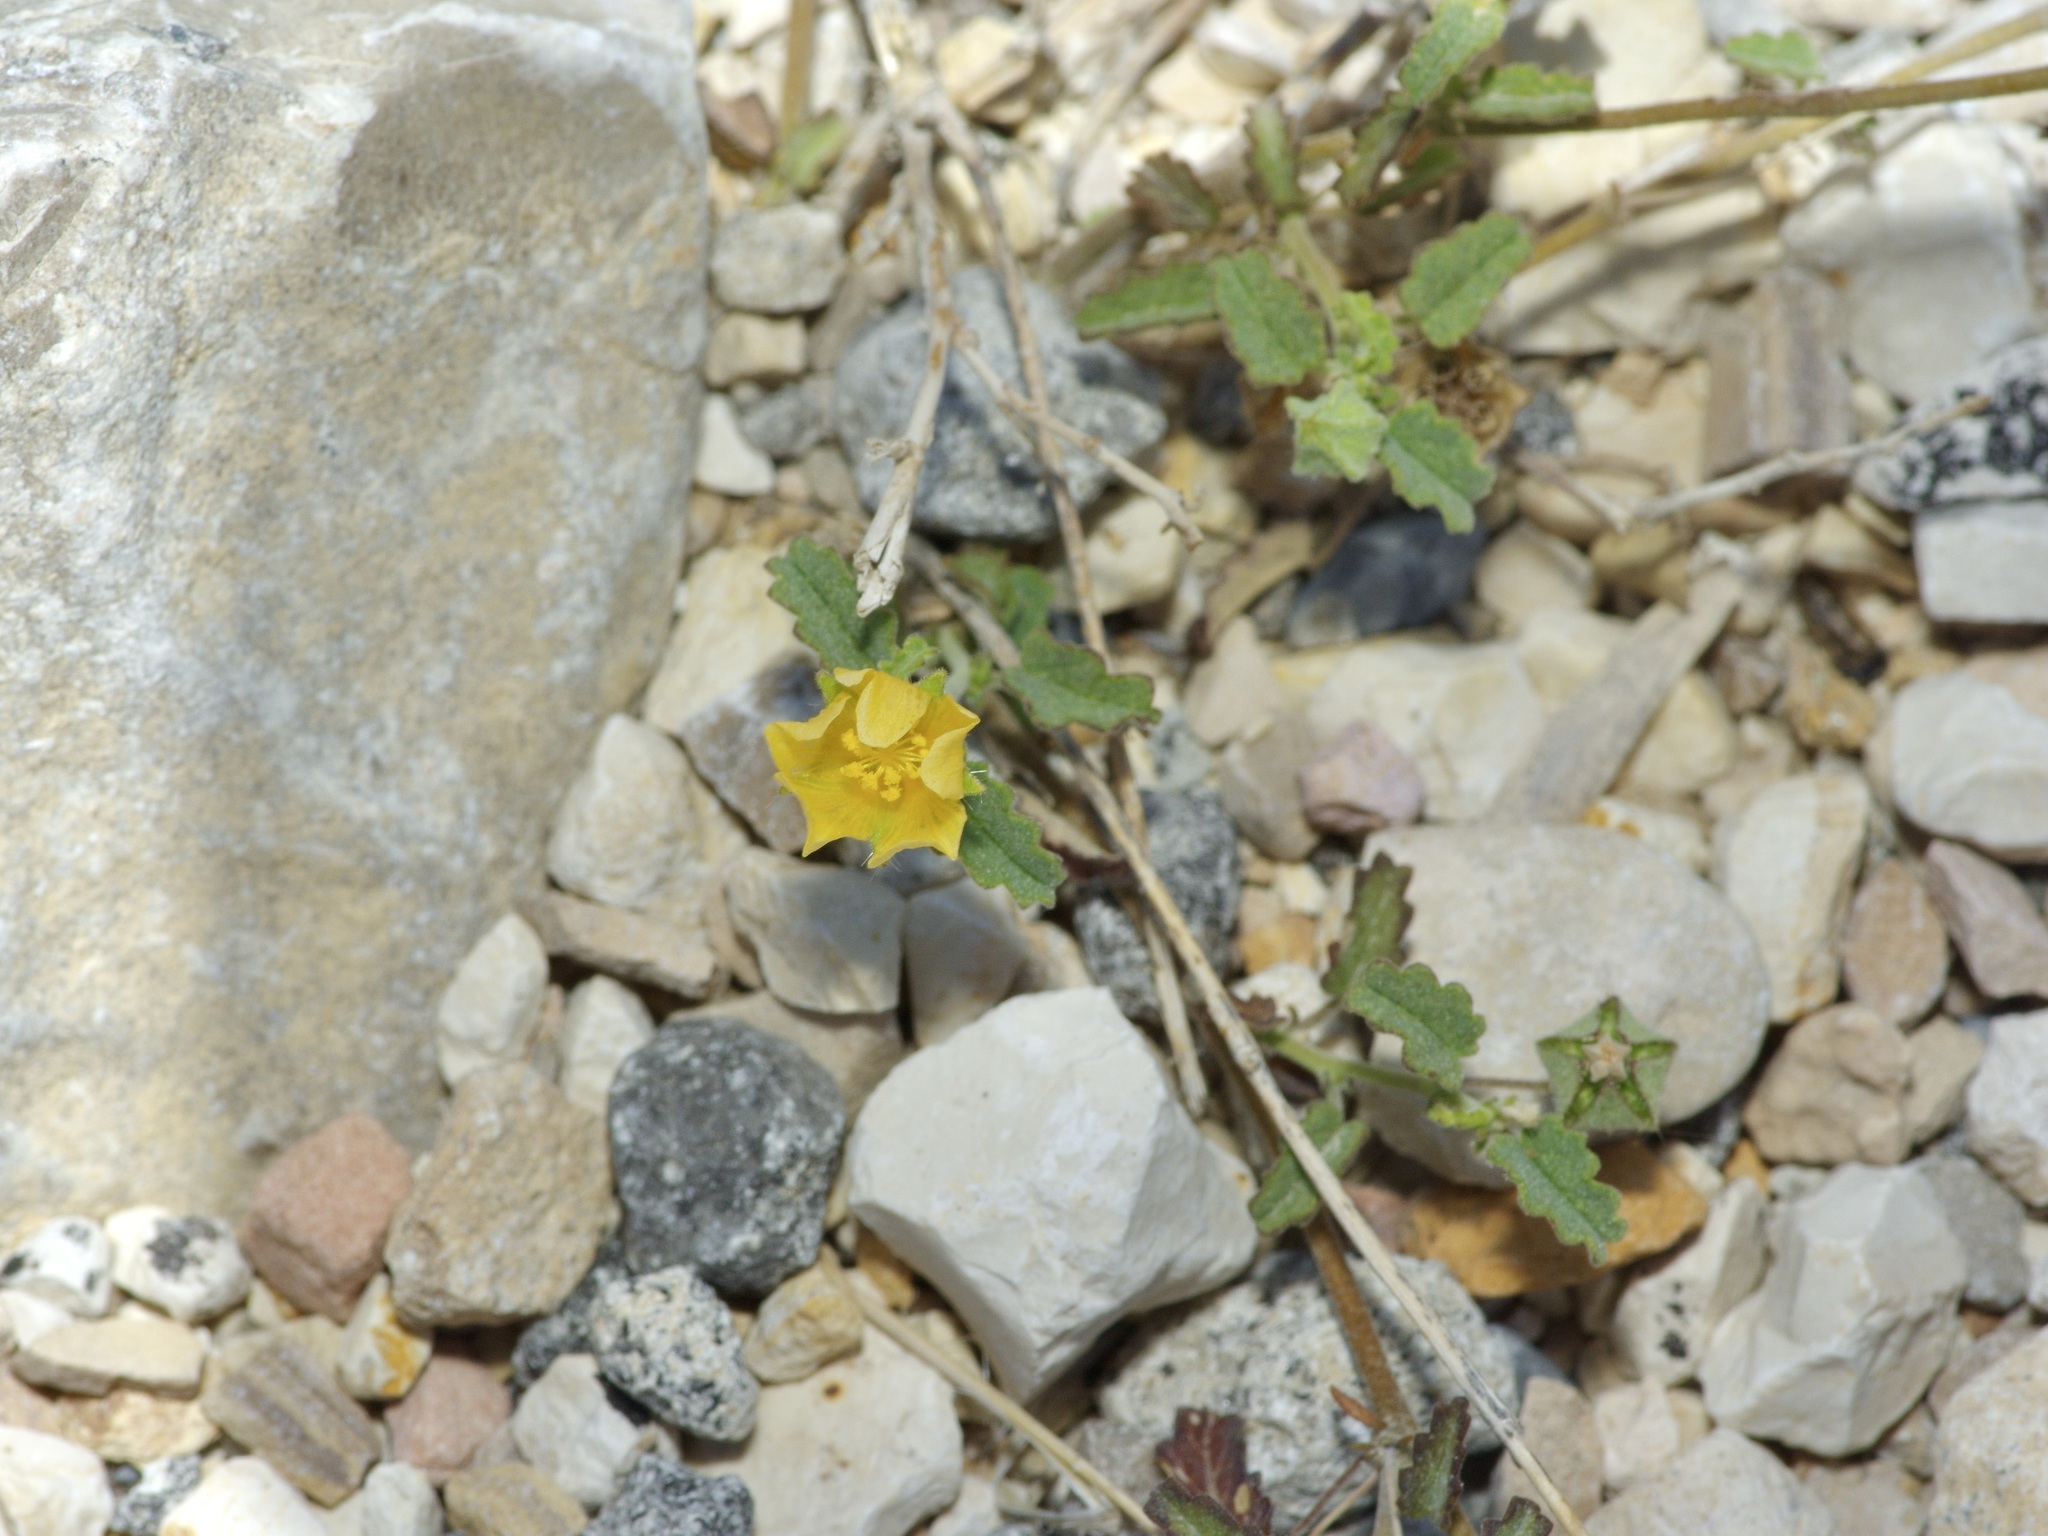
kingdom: Plantae
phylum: Tracheophyta
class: Magnoliopsida
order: Malvales
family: Malvaceae
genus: Sida
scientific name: Sida abutilifolia
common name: Spreading fanpetals
